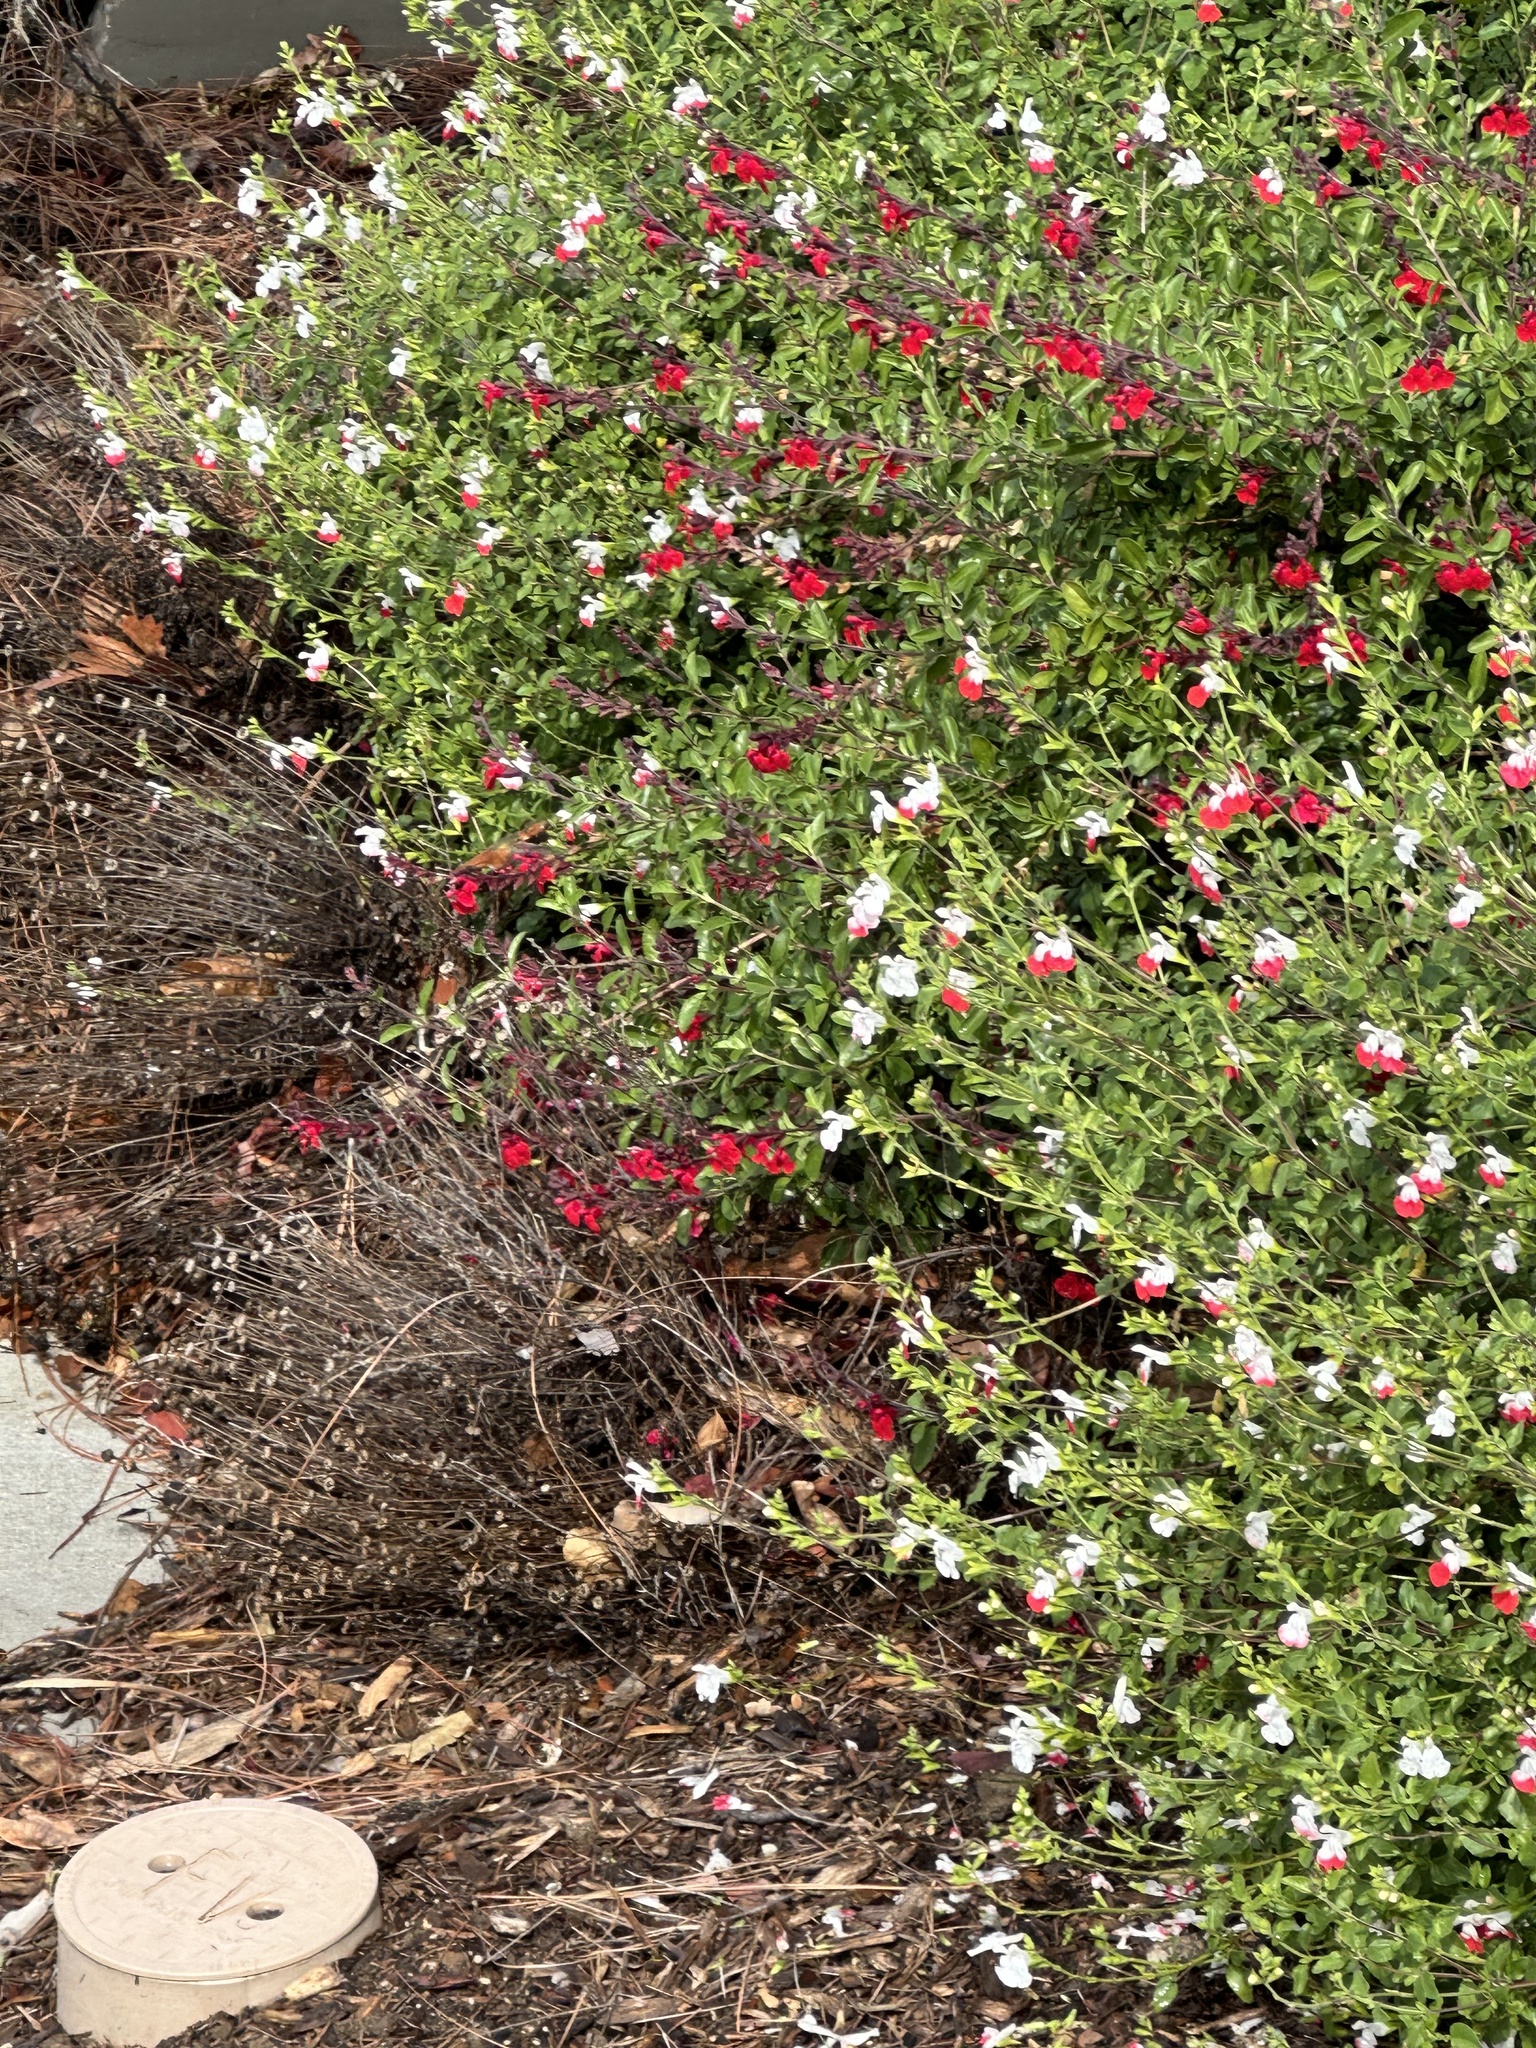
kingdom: Animalia
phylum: Chordata
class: Aves
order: Apodiformes
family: Trochilidae
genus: Selasphorus
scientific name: Selasphorus sasin
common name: Allen's hummingbird
